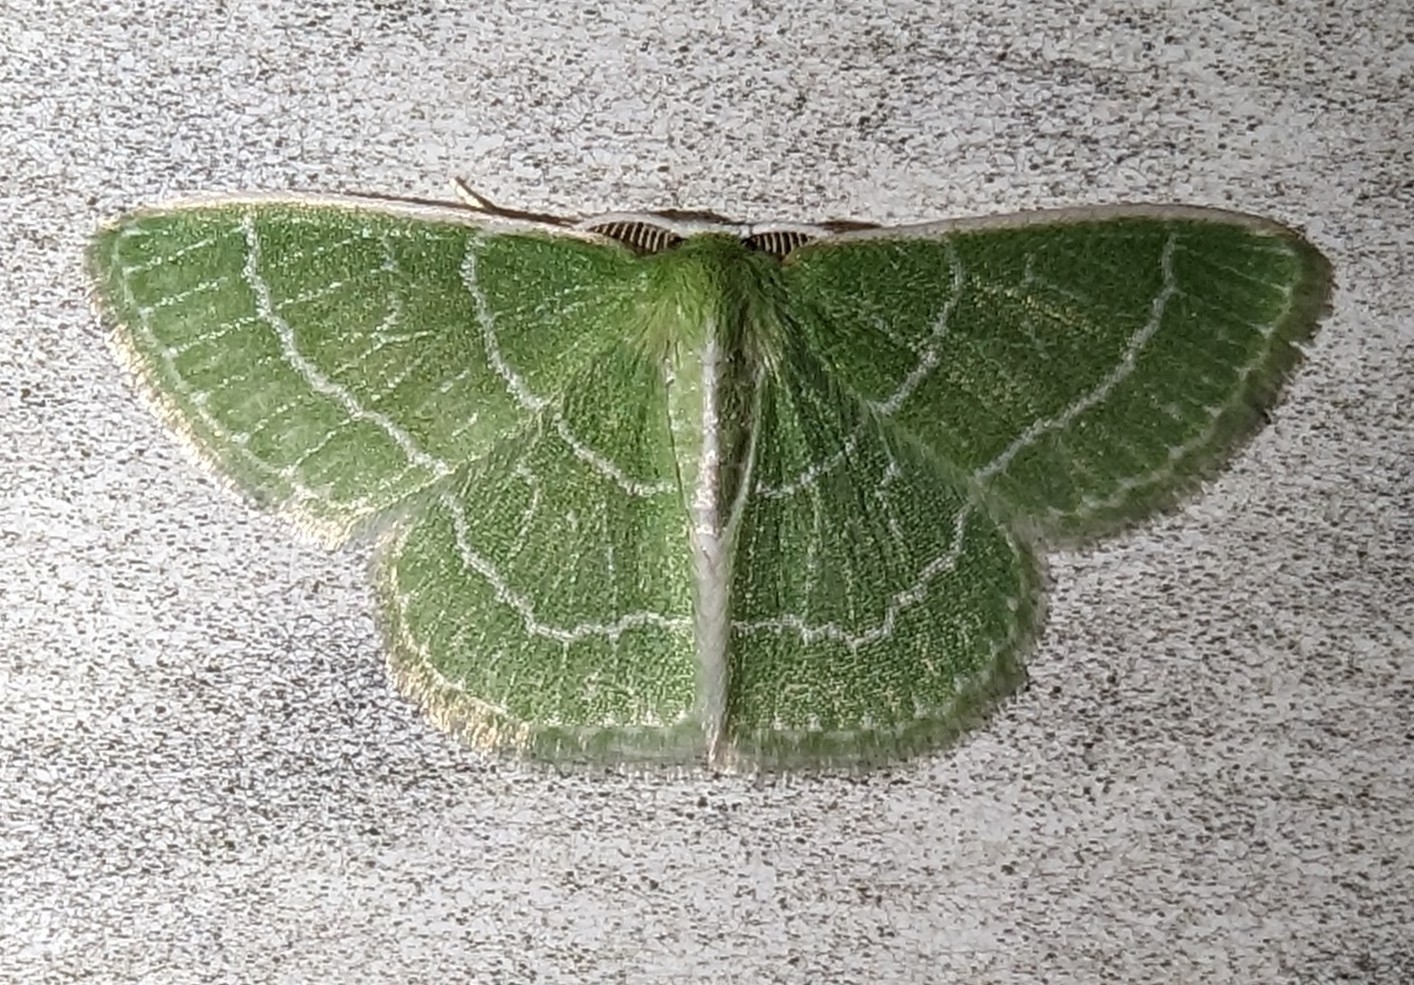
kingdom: Animalia
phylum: Arthropoda
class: Insecta
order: Lepidoptera
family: Geometridae
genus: Synchlora
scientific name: Synchlora aerata
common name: Wavy-lined emerald
